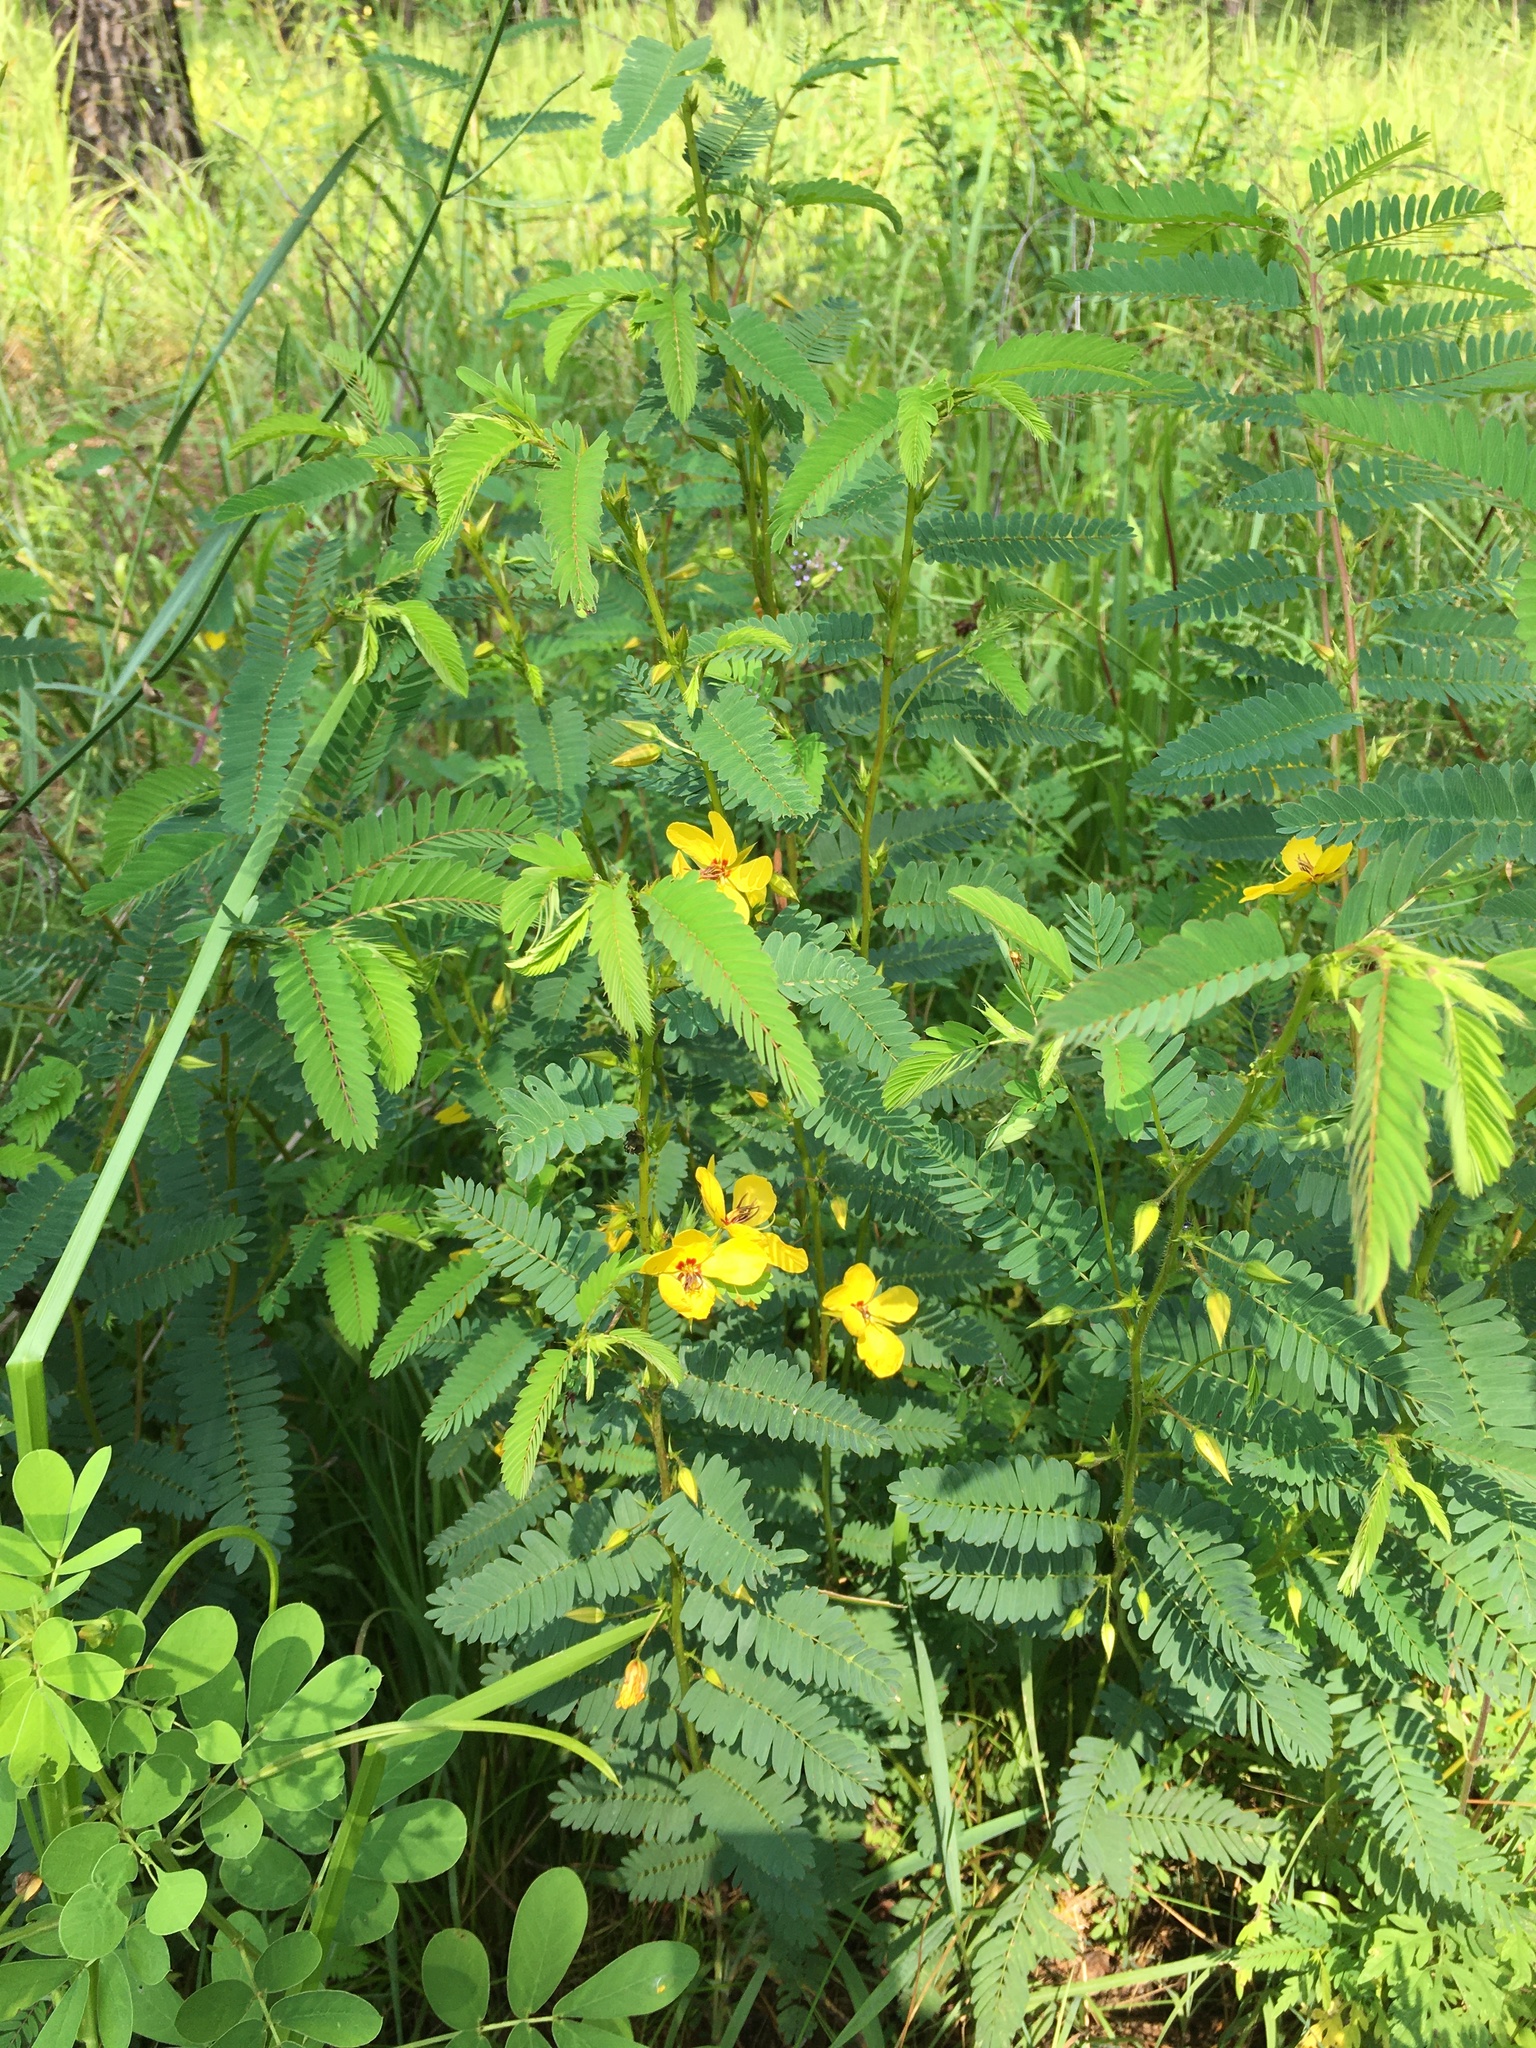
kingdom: Plantae
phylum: Tracheophyta
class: Magnoliopsida
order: Fabales
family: Fabaceae
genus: Chamaecrista
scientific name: Chamaecrista fasciculata
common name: Golden cassia
